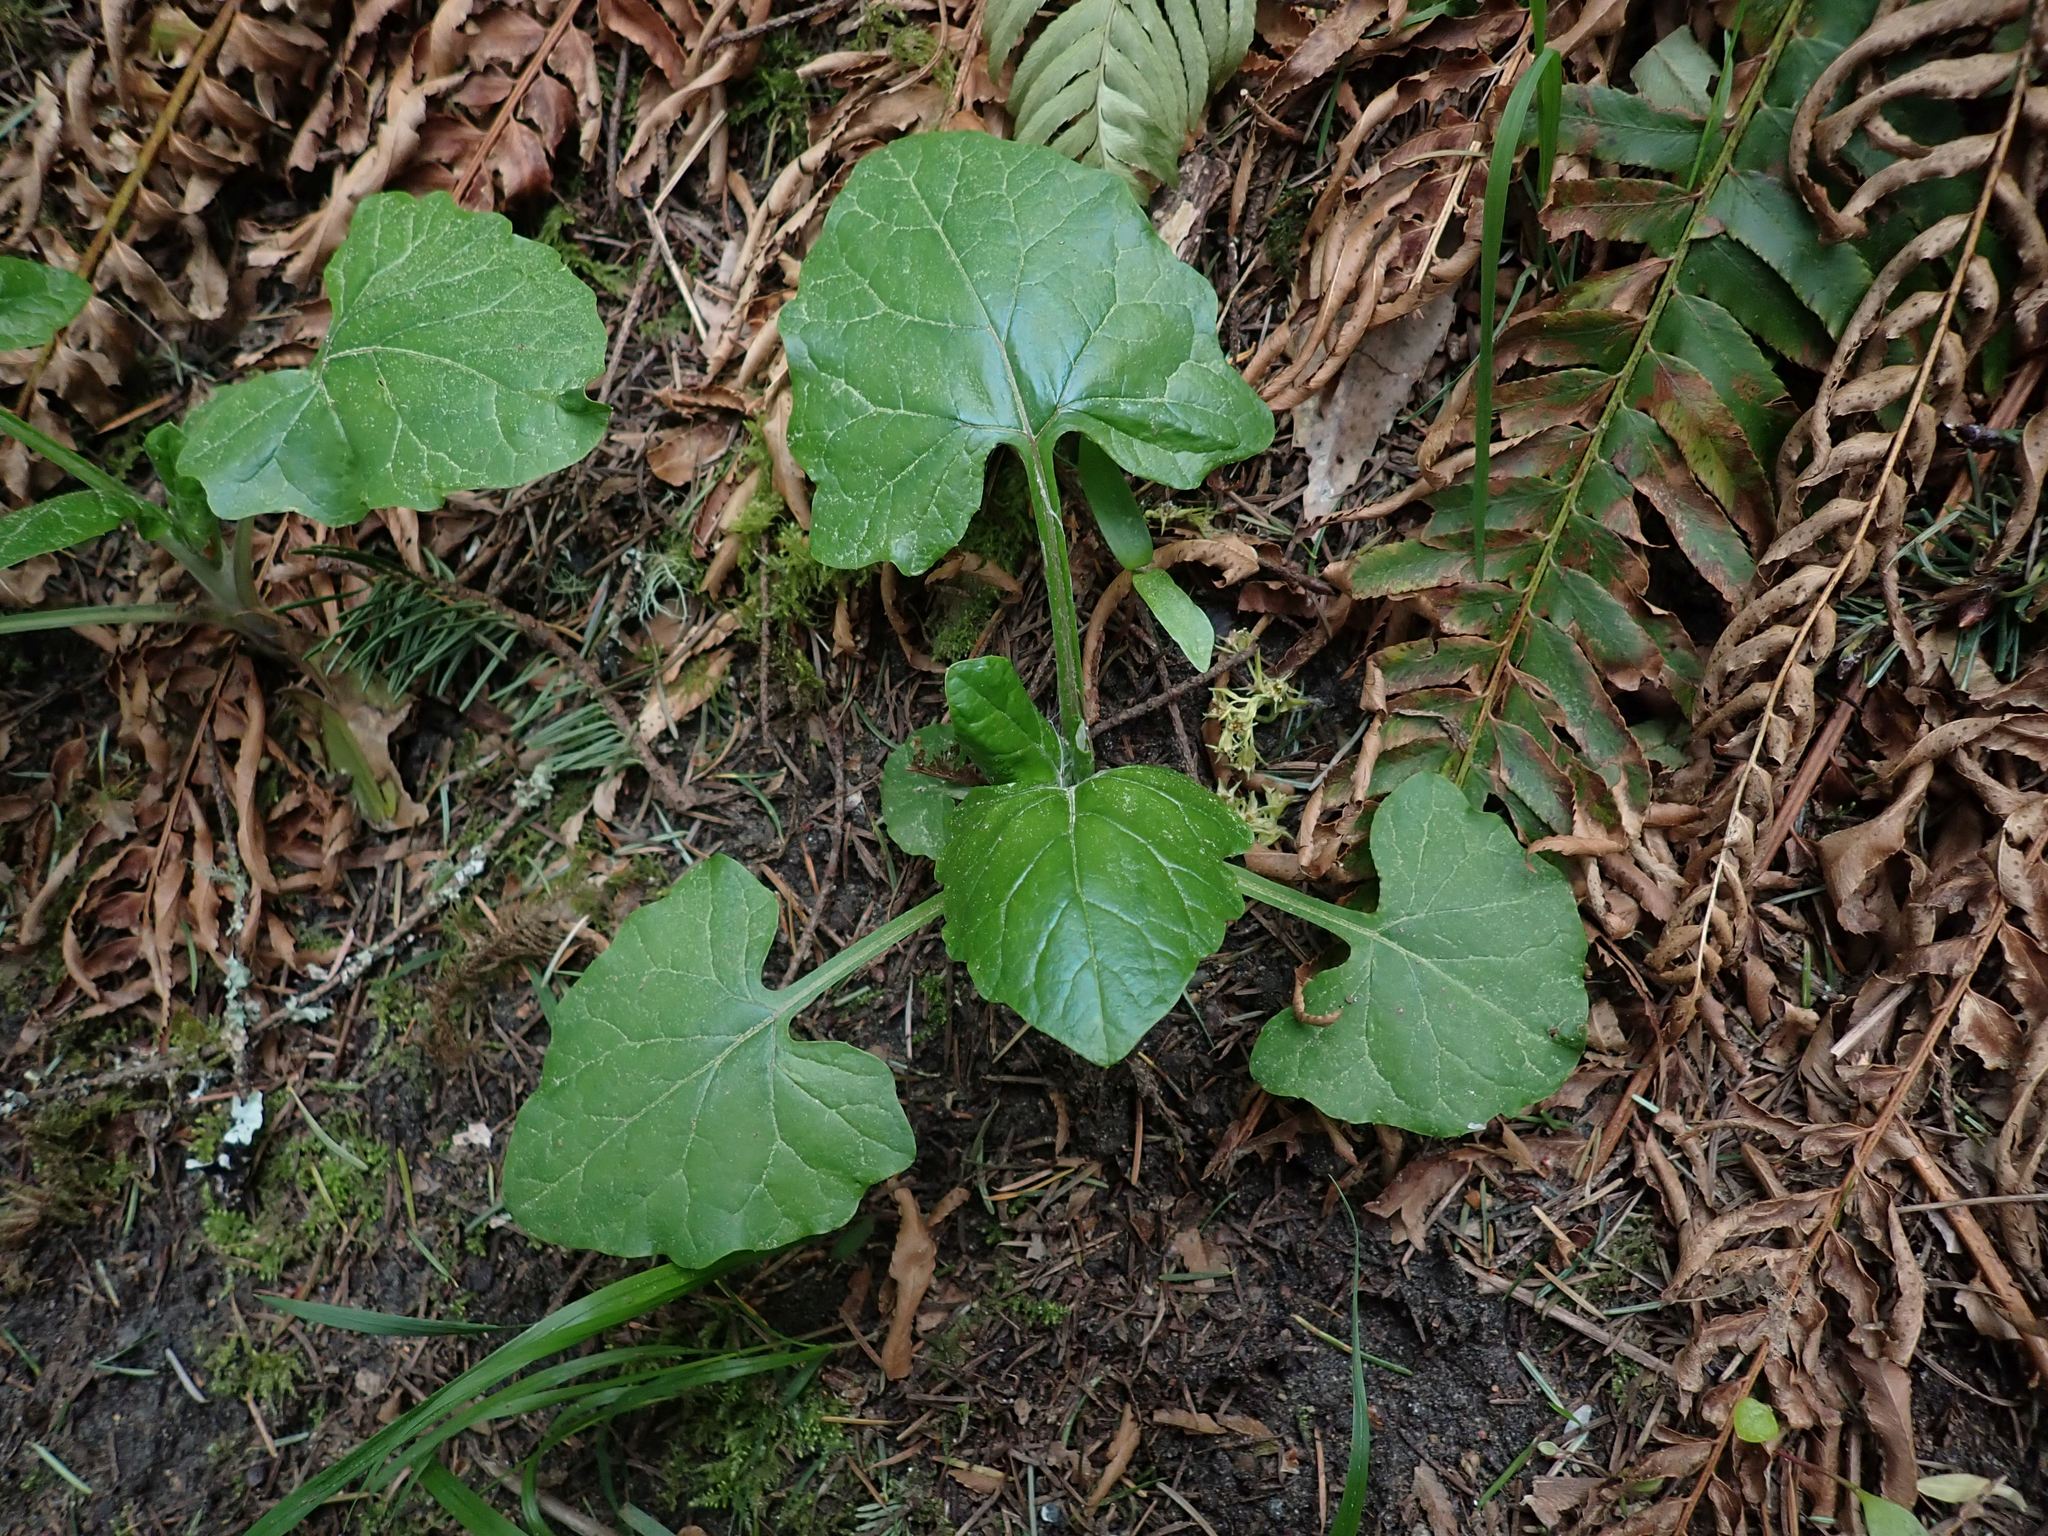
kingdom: Plantae
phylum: Tracheophyta
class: Magnoliopsida
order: Asterales
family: Asteraceae
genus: Adenocaulon
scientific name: Adenocaulon bicolor
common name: Trailplant
